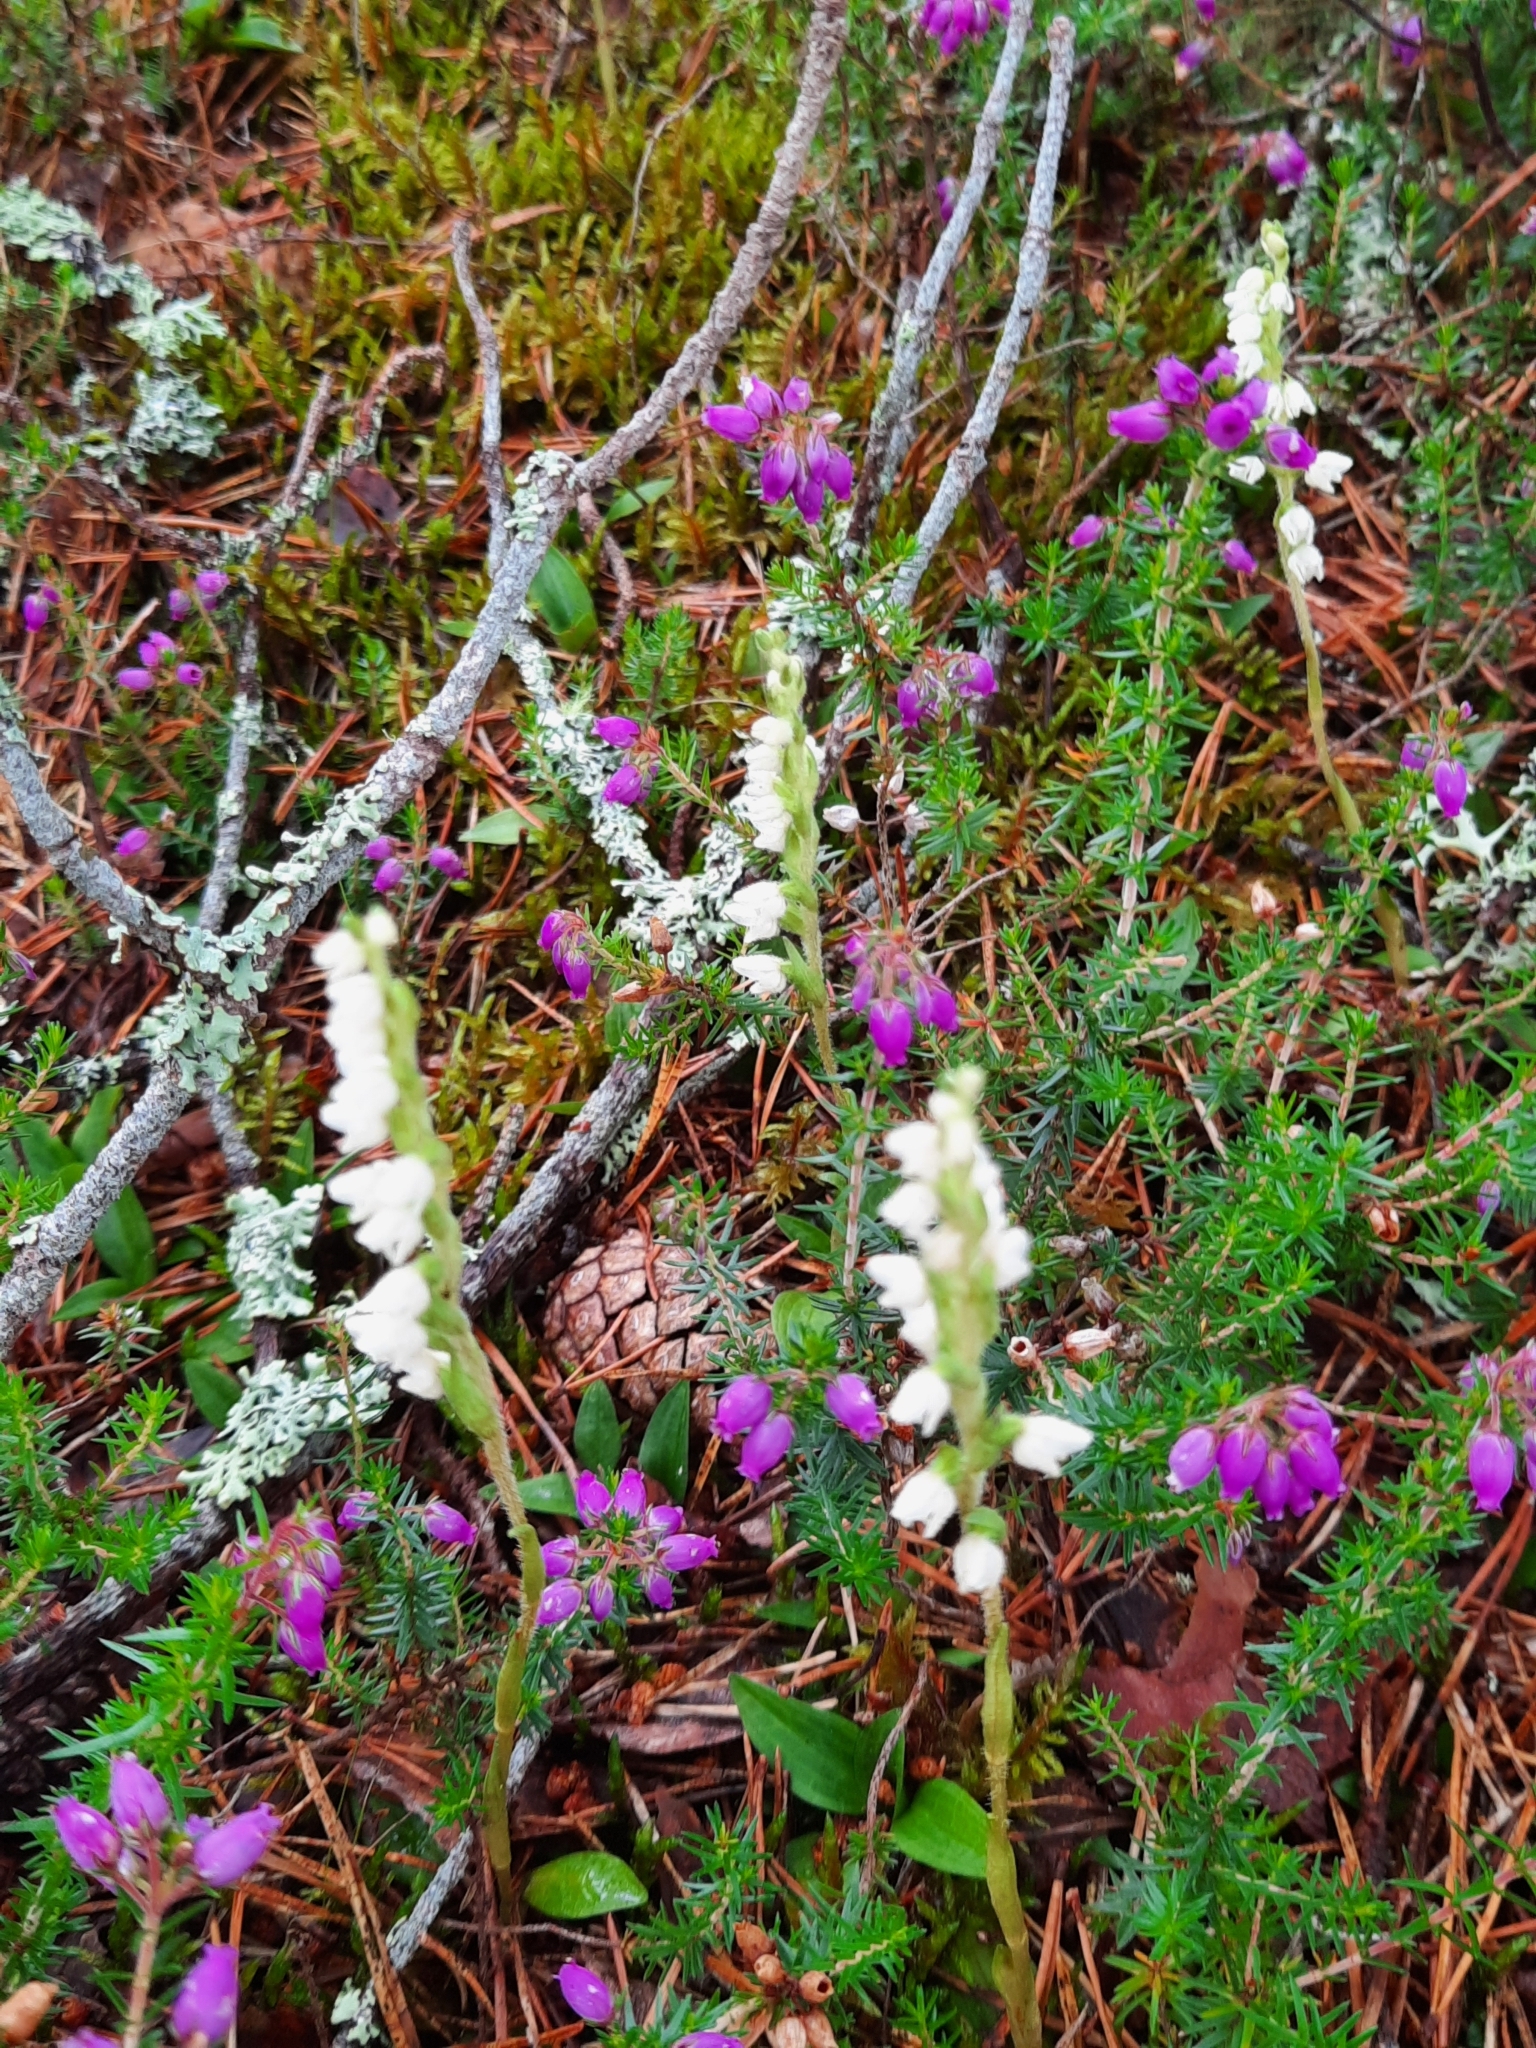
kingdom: Plantae
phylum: Tracheophyta
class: Liliopsida
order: Asparagales
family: Orchidaceae
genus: Goodyera
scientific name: Goodyera repens
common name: Creeping lady's-tresses
